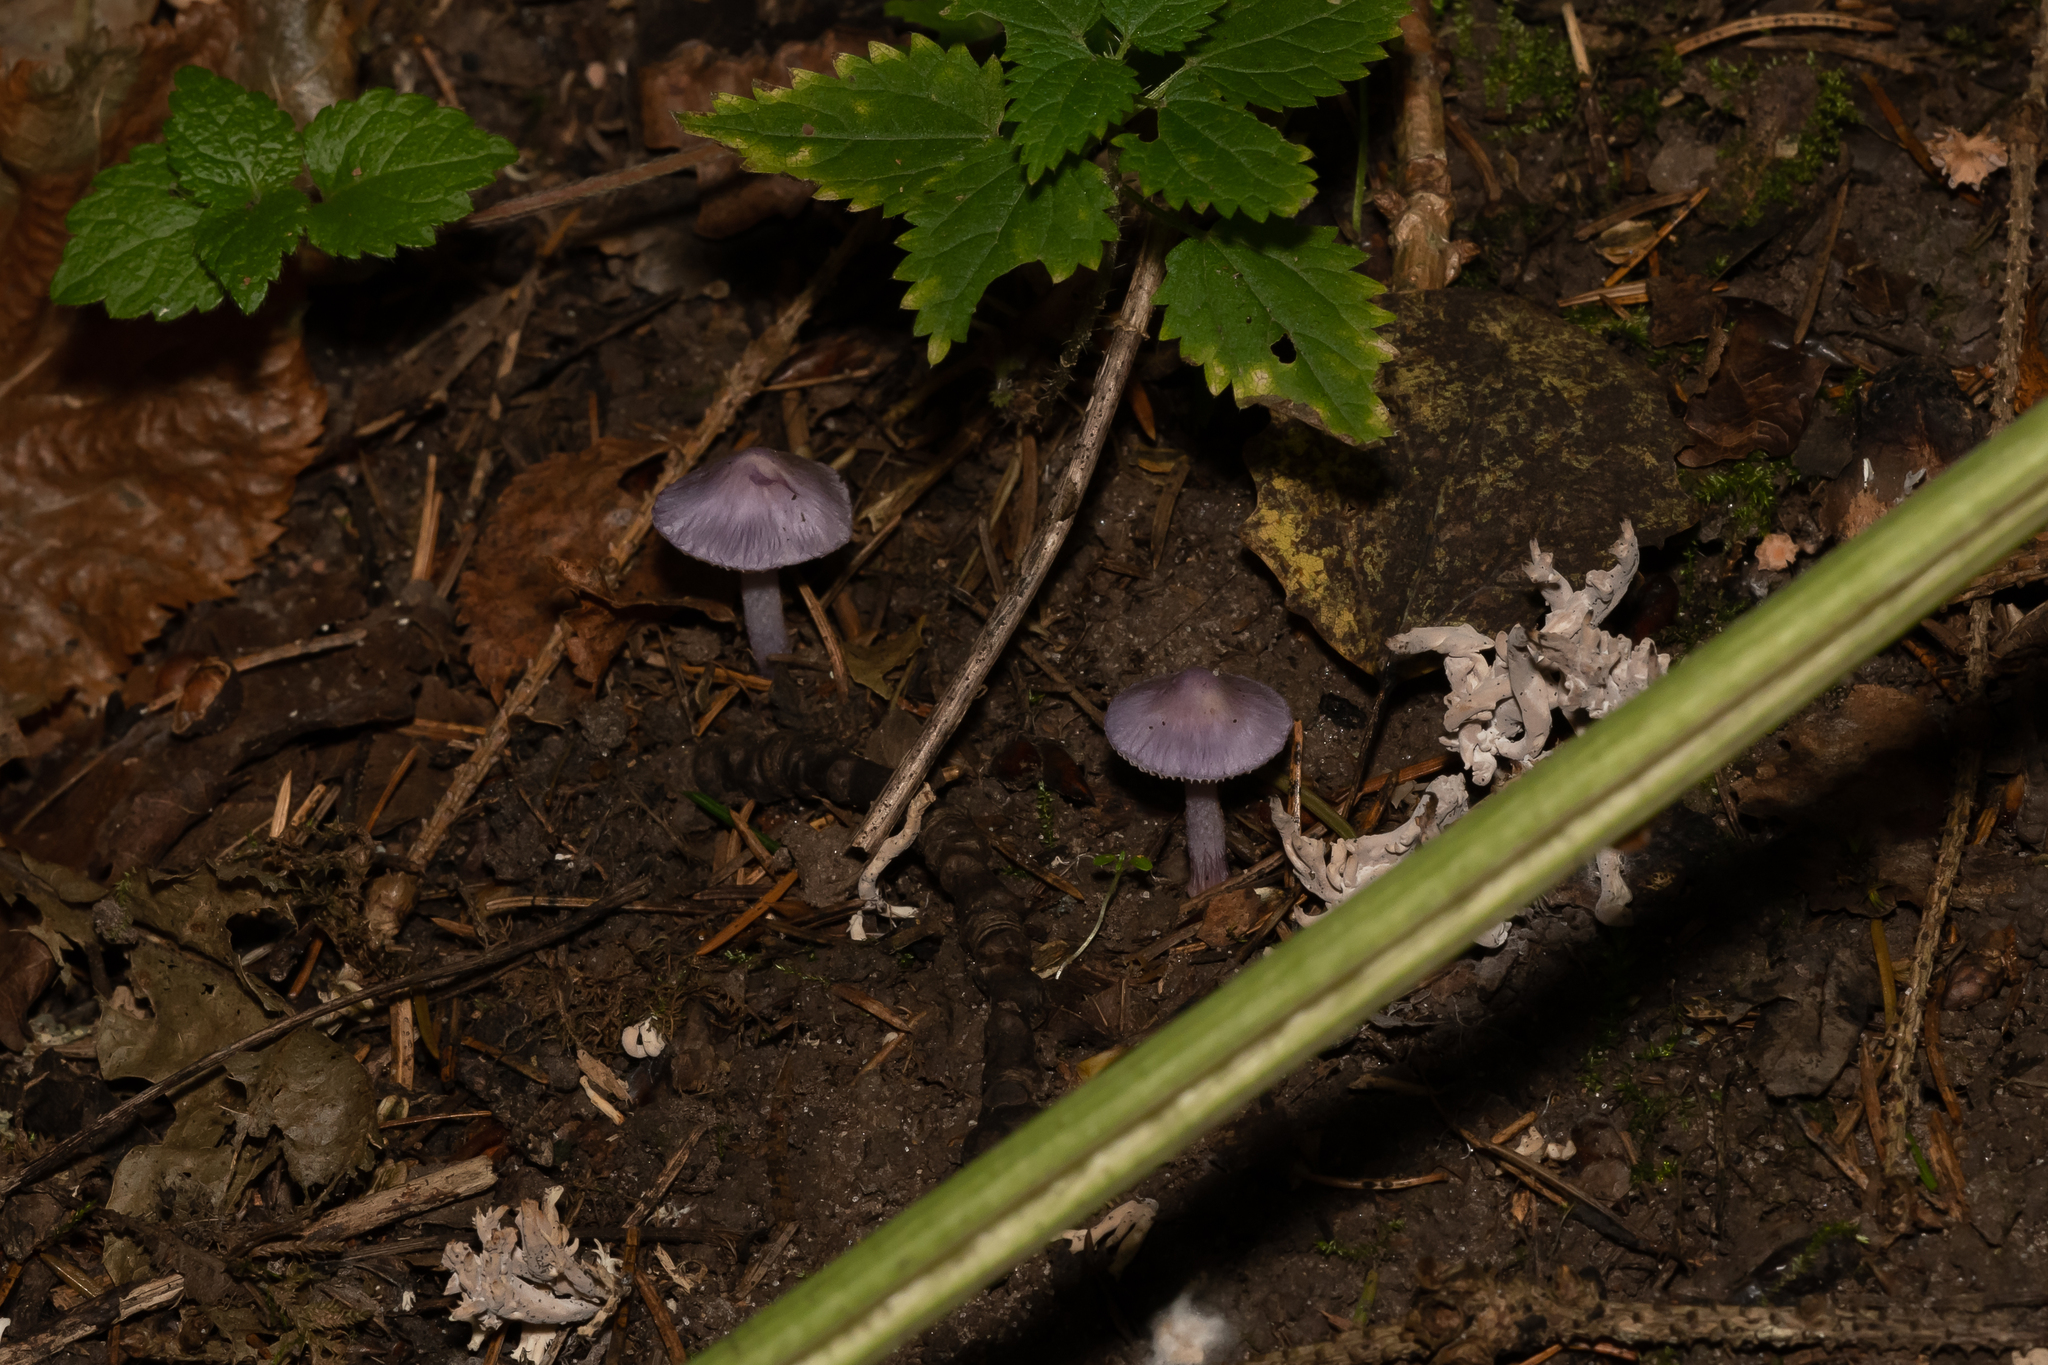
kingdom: Fungi
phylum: Basidiomycota
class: Agaricomycetes
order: Agaricales
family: Inocybaceae
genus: Inocybe
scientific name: Inocybe geophylla
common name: White fibrecap
